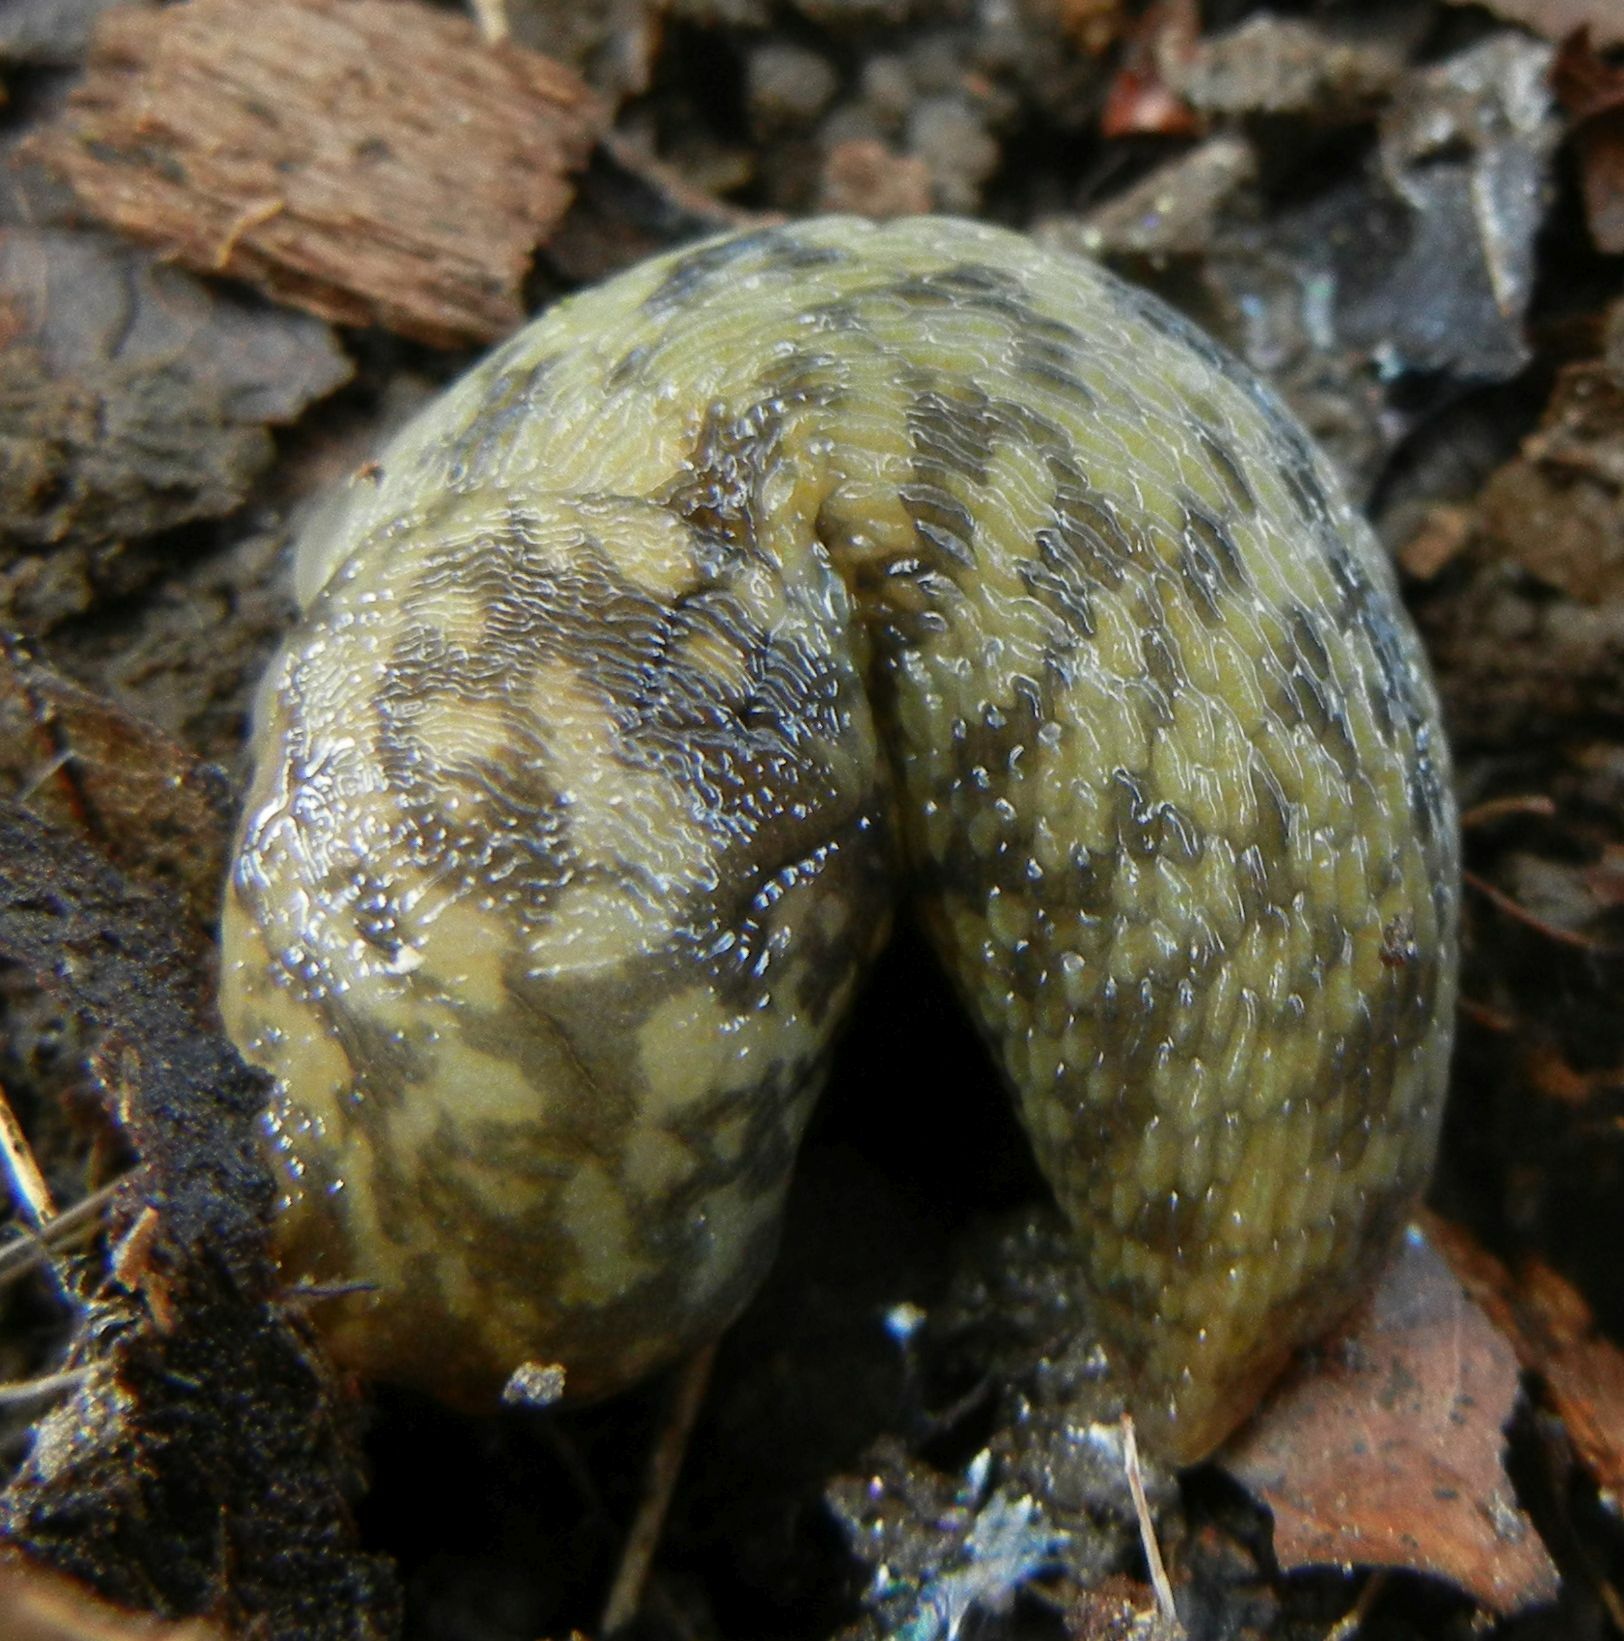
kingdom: Animalia
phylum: Mollusca
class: Gastropoda
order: Stylommatophora
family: Limacidae
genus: Limacus
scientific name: Limacus maculatus
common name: Irish yellow slug
